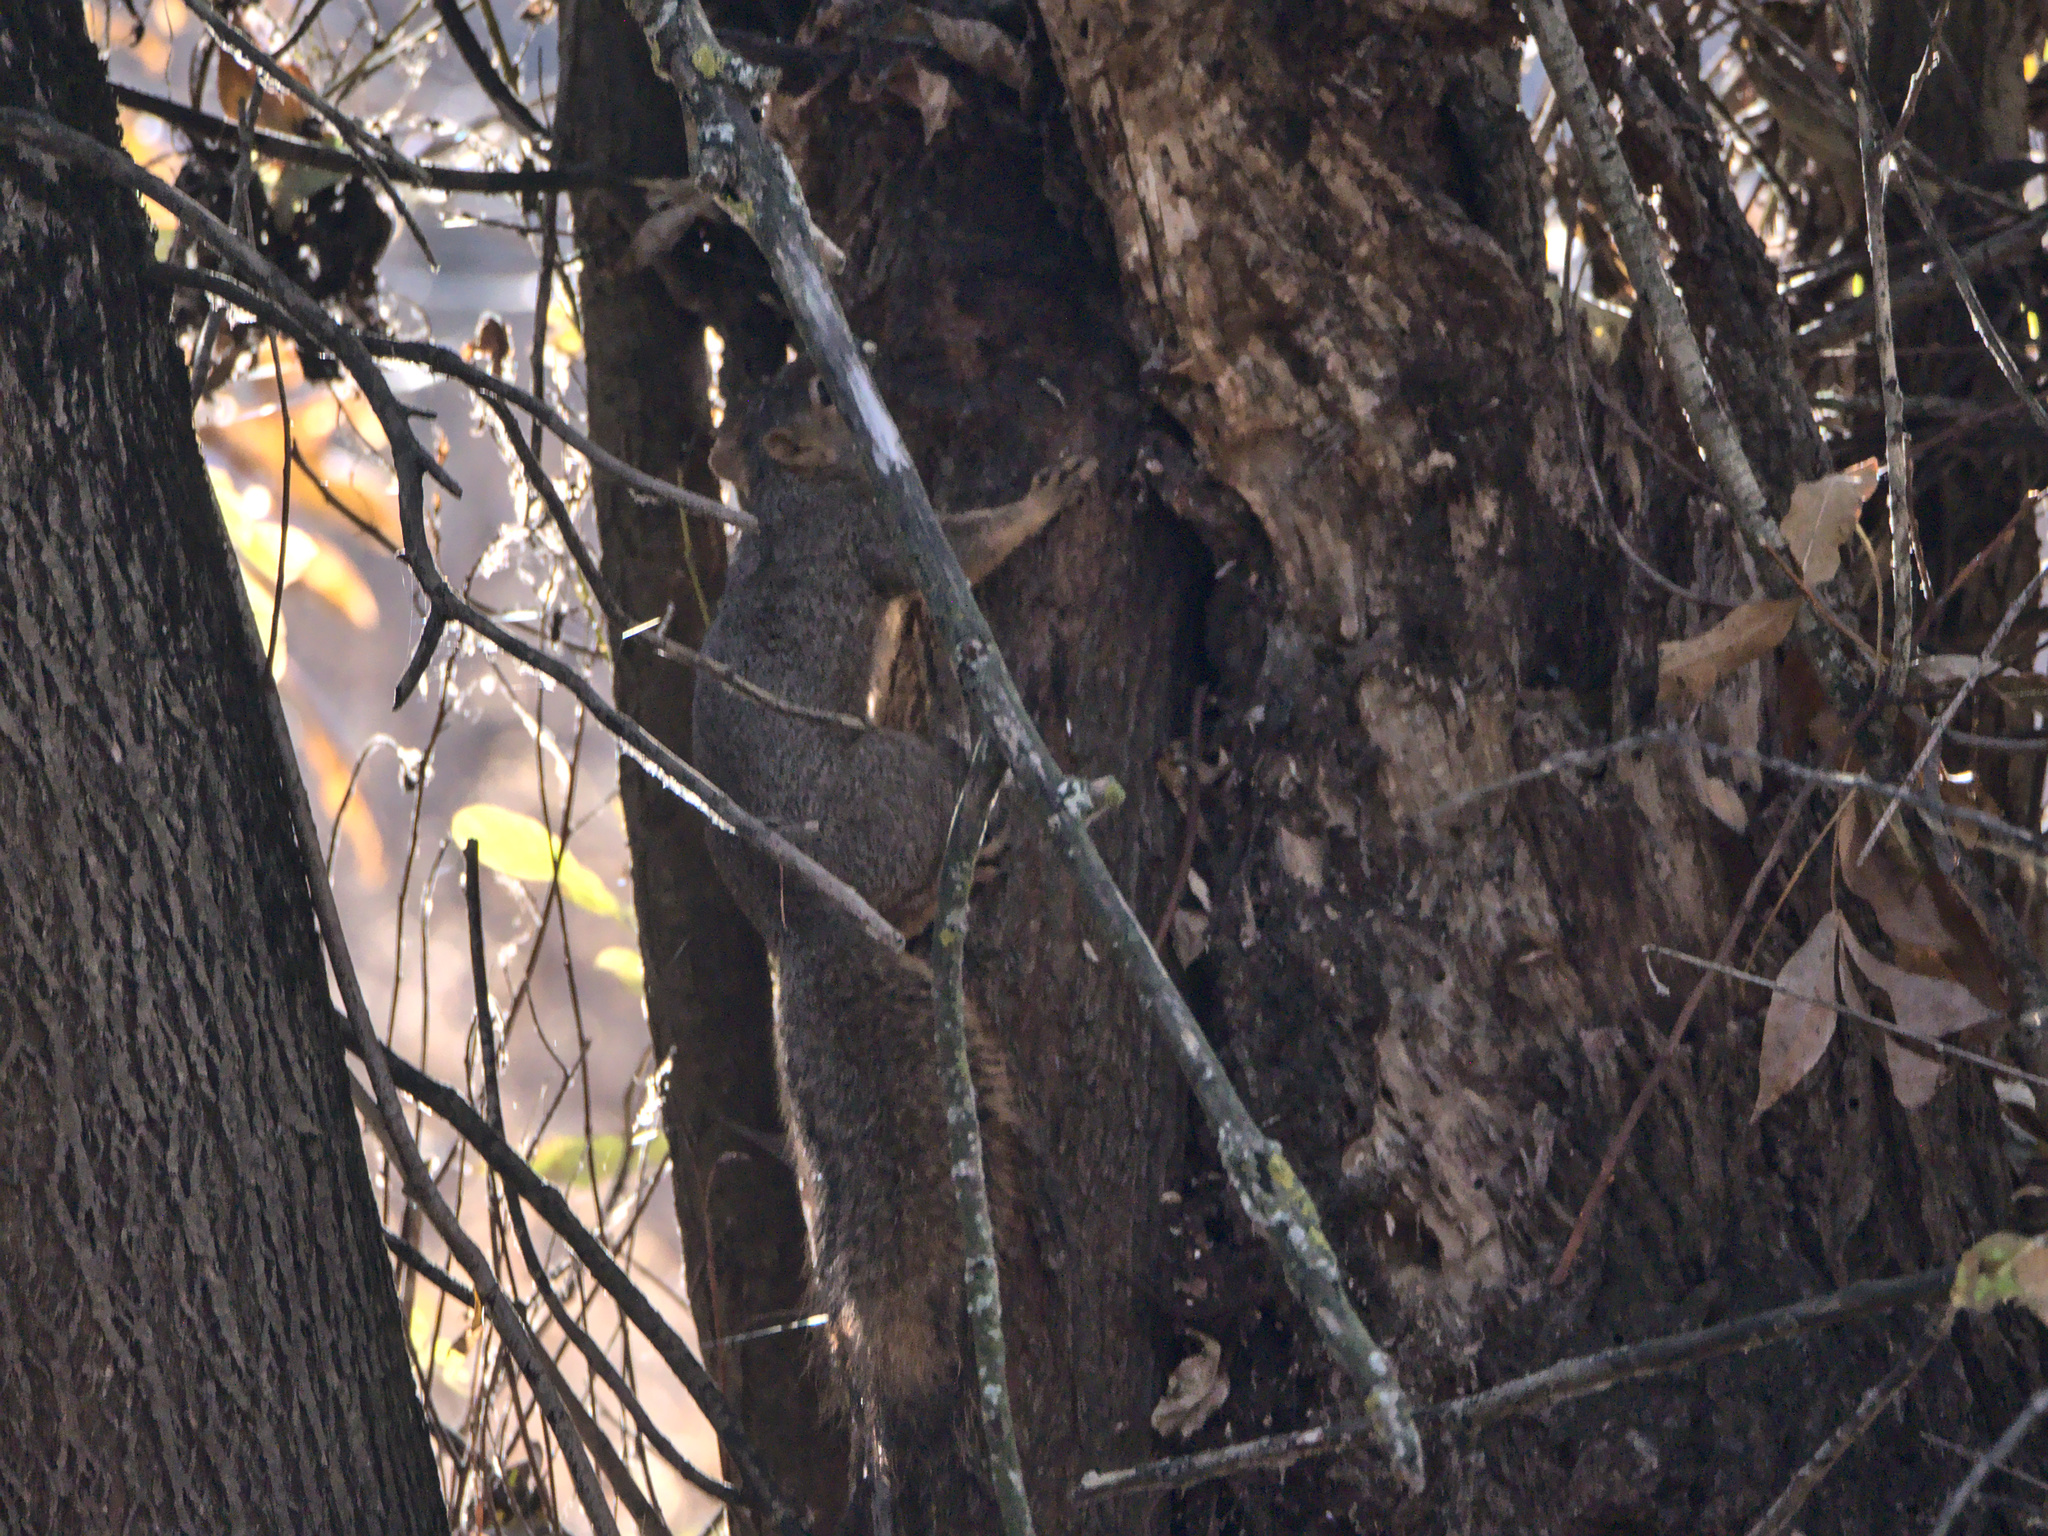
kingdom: Animalia
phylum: Chordata
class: Mammalia
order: Rodentia
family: Sciuridae
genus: Sciurus
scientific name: Sciurus niger
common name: Fox squirrel
